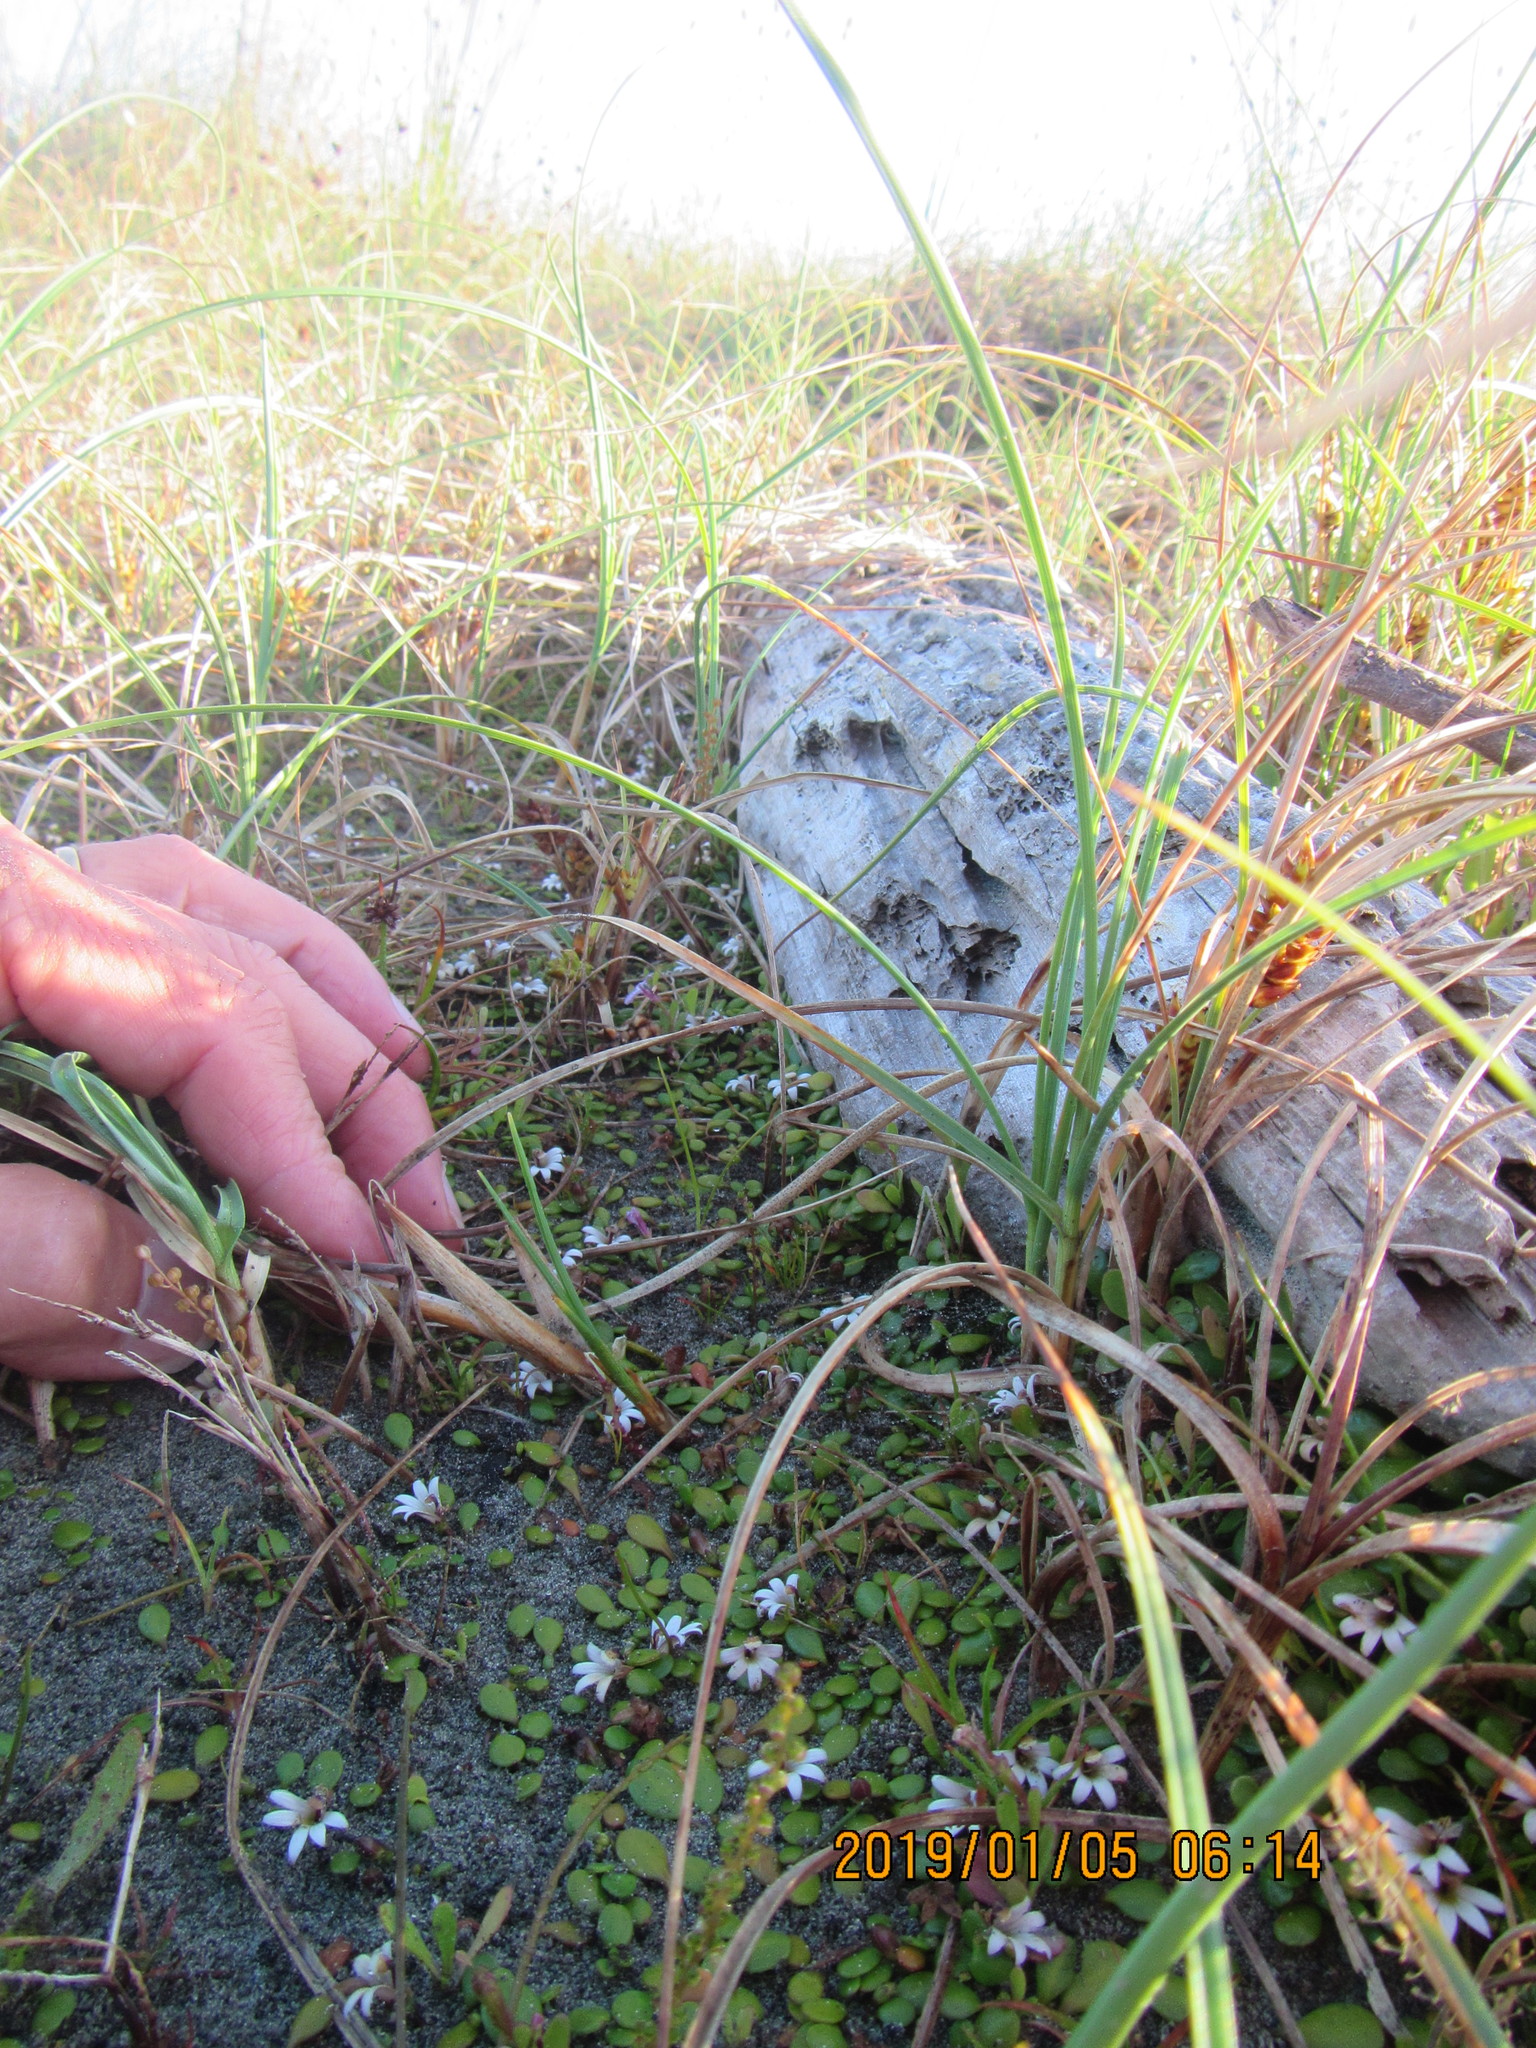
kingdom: Plantae
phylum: Tracheophyta
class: Magnoliopsida
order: Asterales
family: Goodeniaceae
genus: Goodenia
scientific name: Goodenia heenanii
